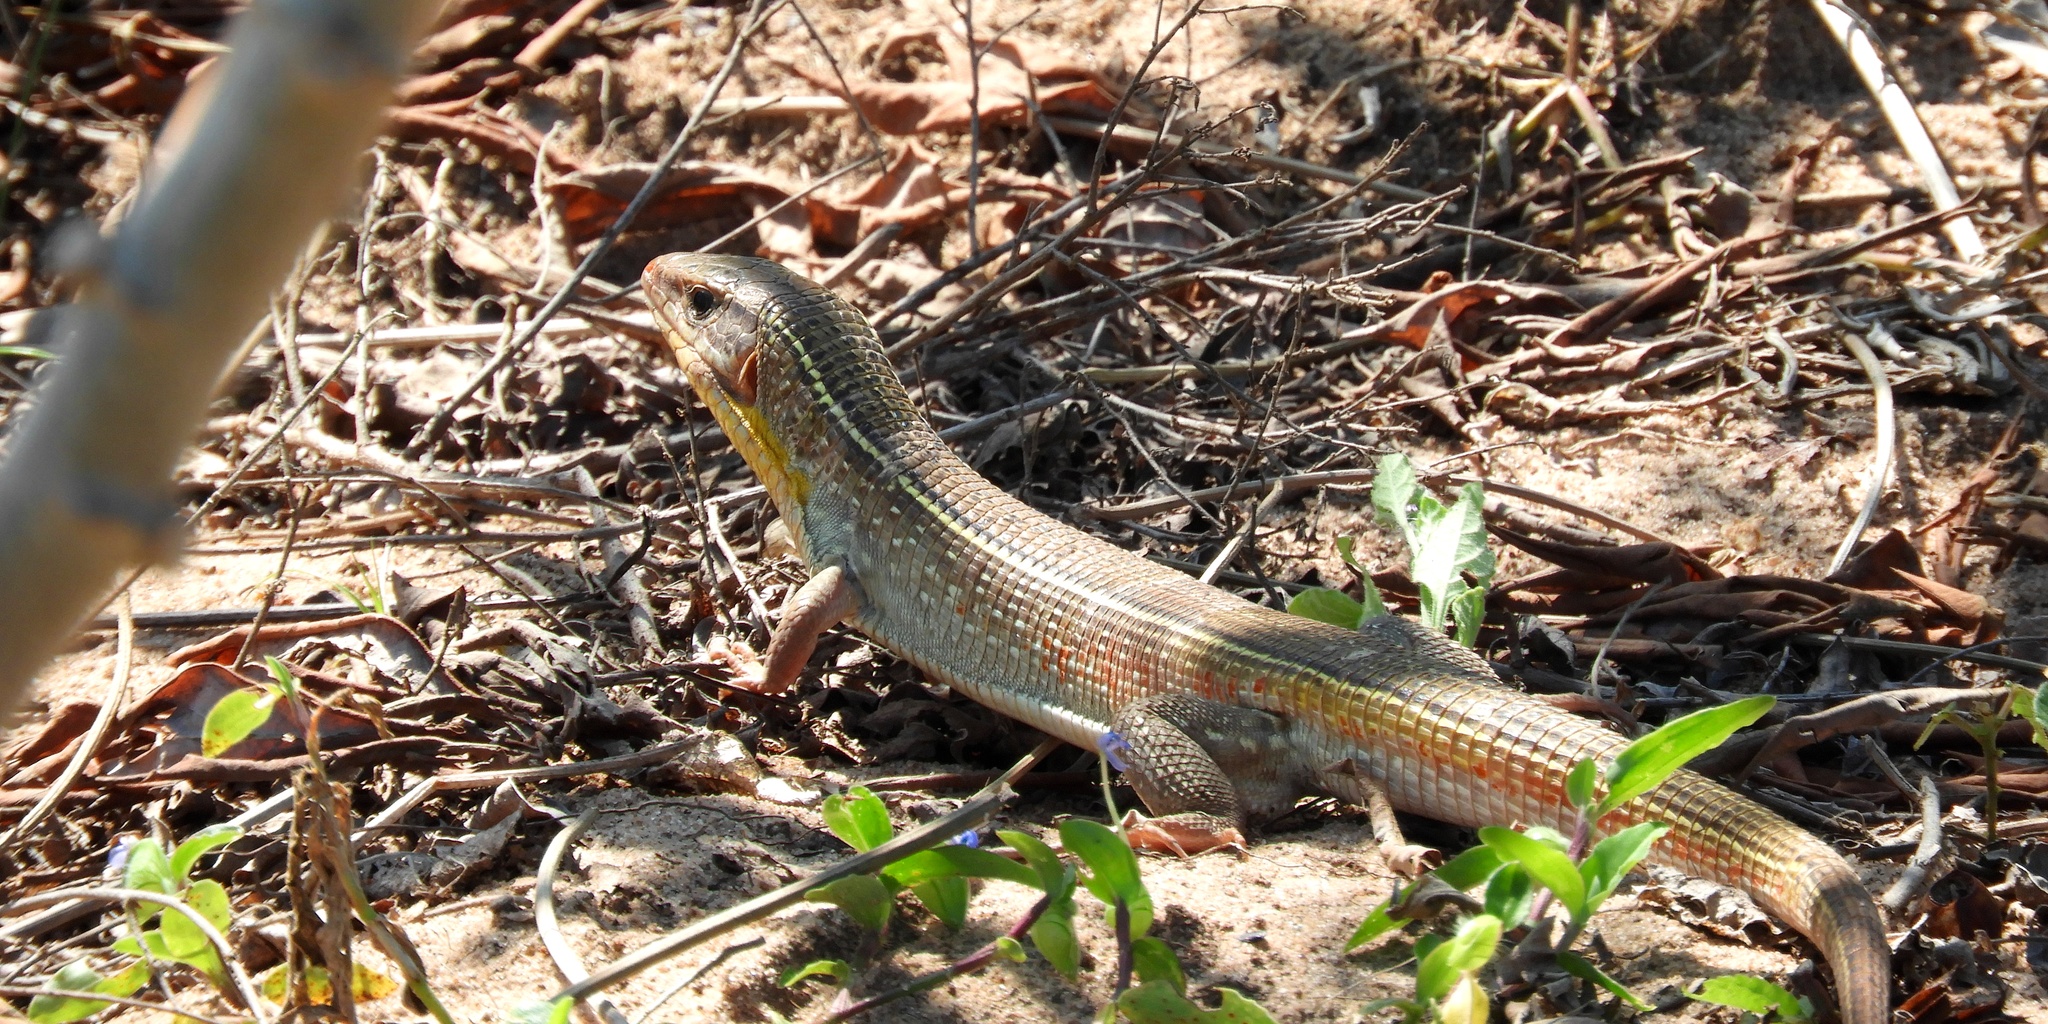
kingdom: Animalia
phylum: Chordata
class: Squamata
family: Gerrhosauridae
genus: Gerrhosaurus
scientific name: Gerrhosaurus nigrolineatus
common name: Black-lined plated lizard
